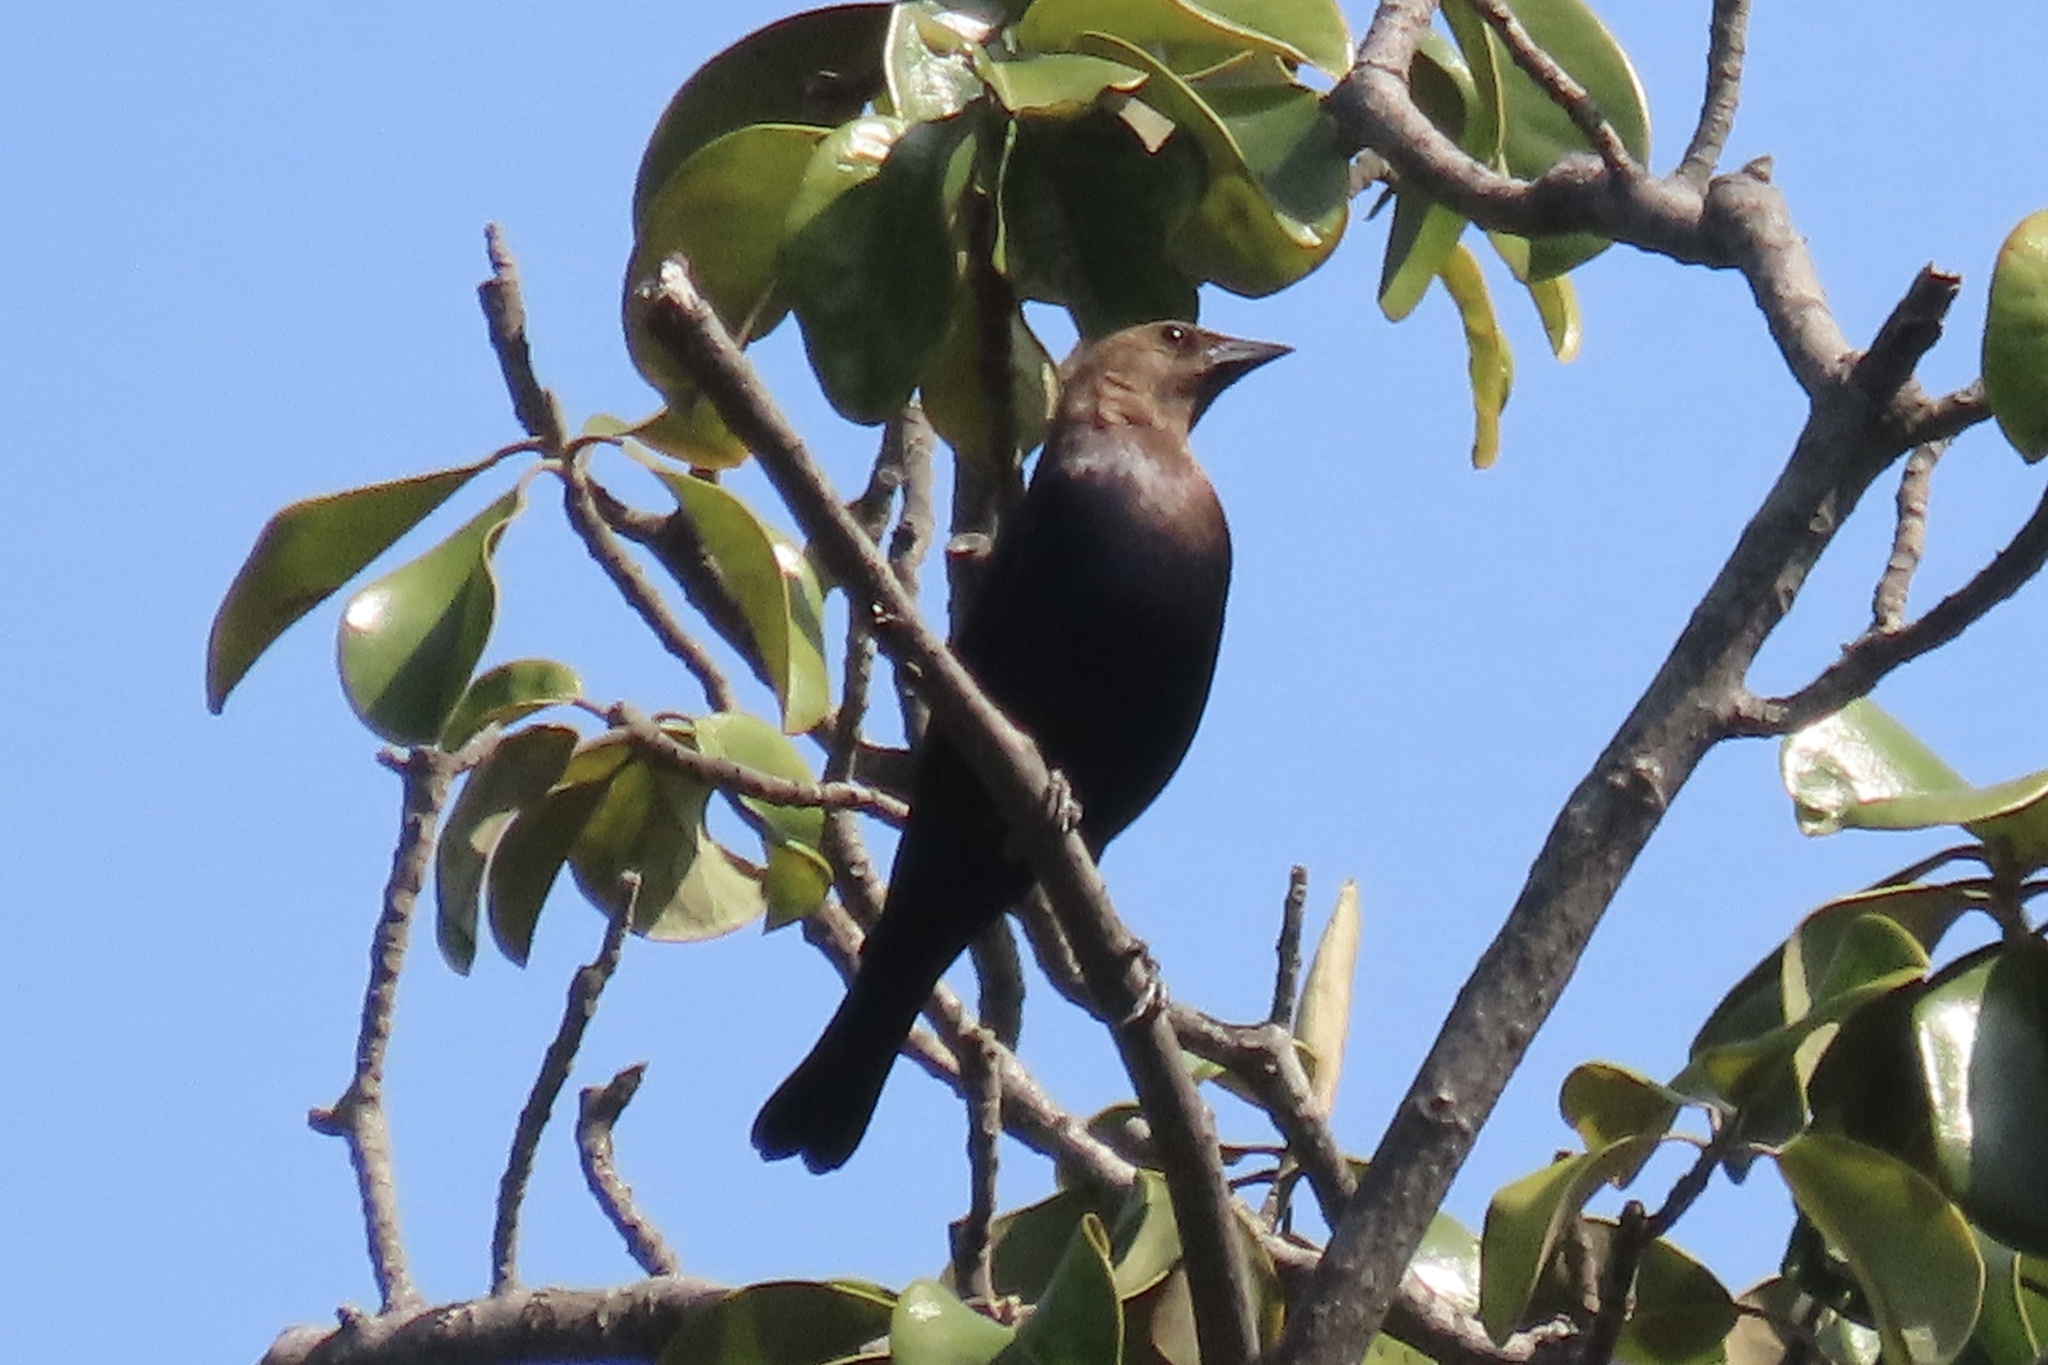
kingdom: Animalia
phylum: Chordata
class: Aves
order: Passeriformes
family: Icteridae
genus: Molothrus
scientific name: Molothrus ater
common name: Brown-headed cowbird
